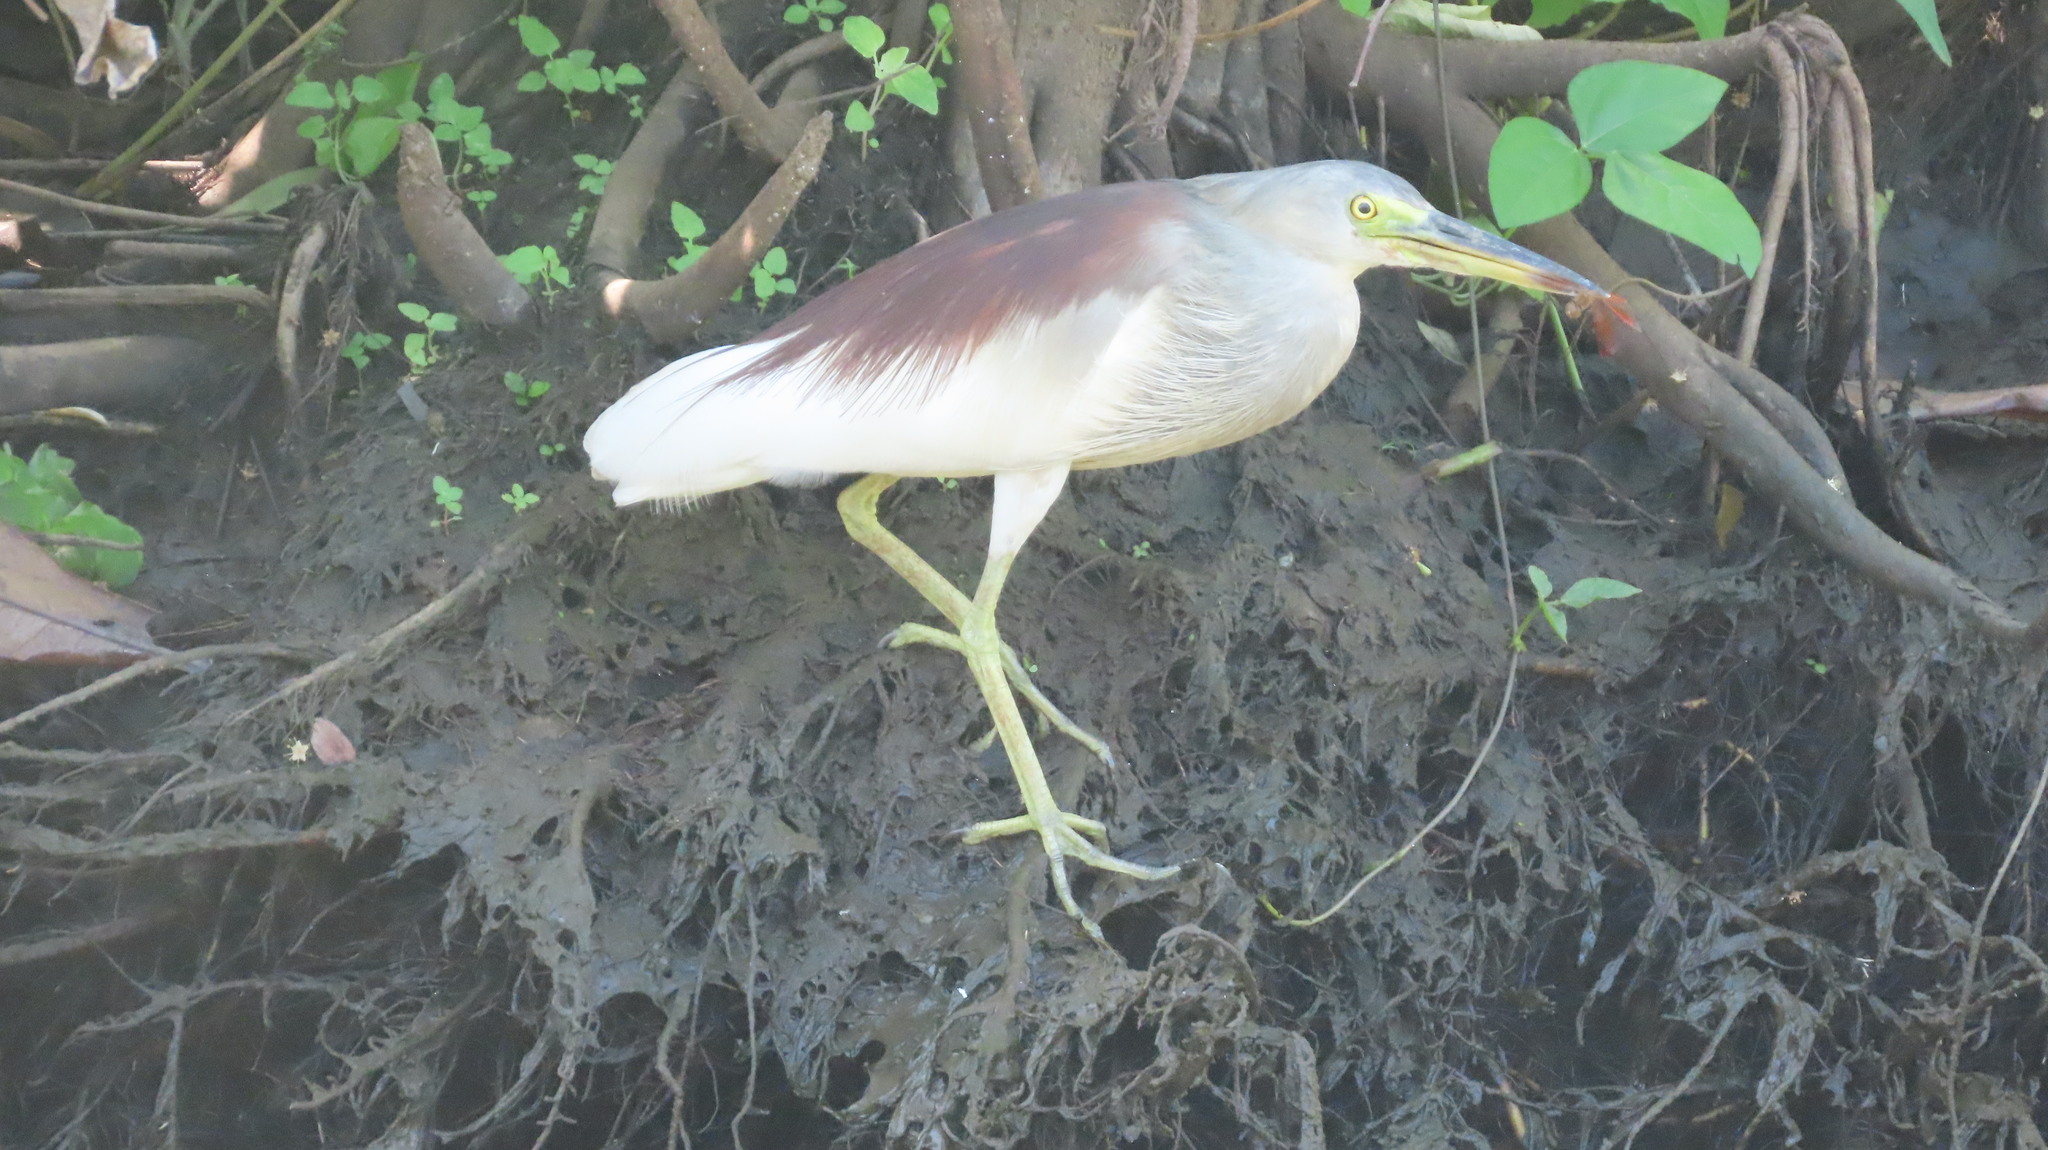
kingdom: Animalia
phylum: Chordata
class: Aves
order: Pelecaniformes
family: Ardeidae
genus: Ardeola
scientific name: Ardeola grayii
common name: Indian pond heron
